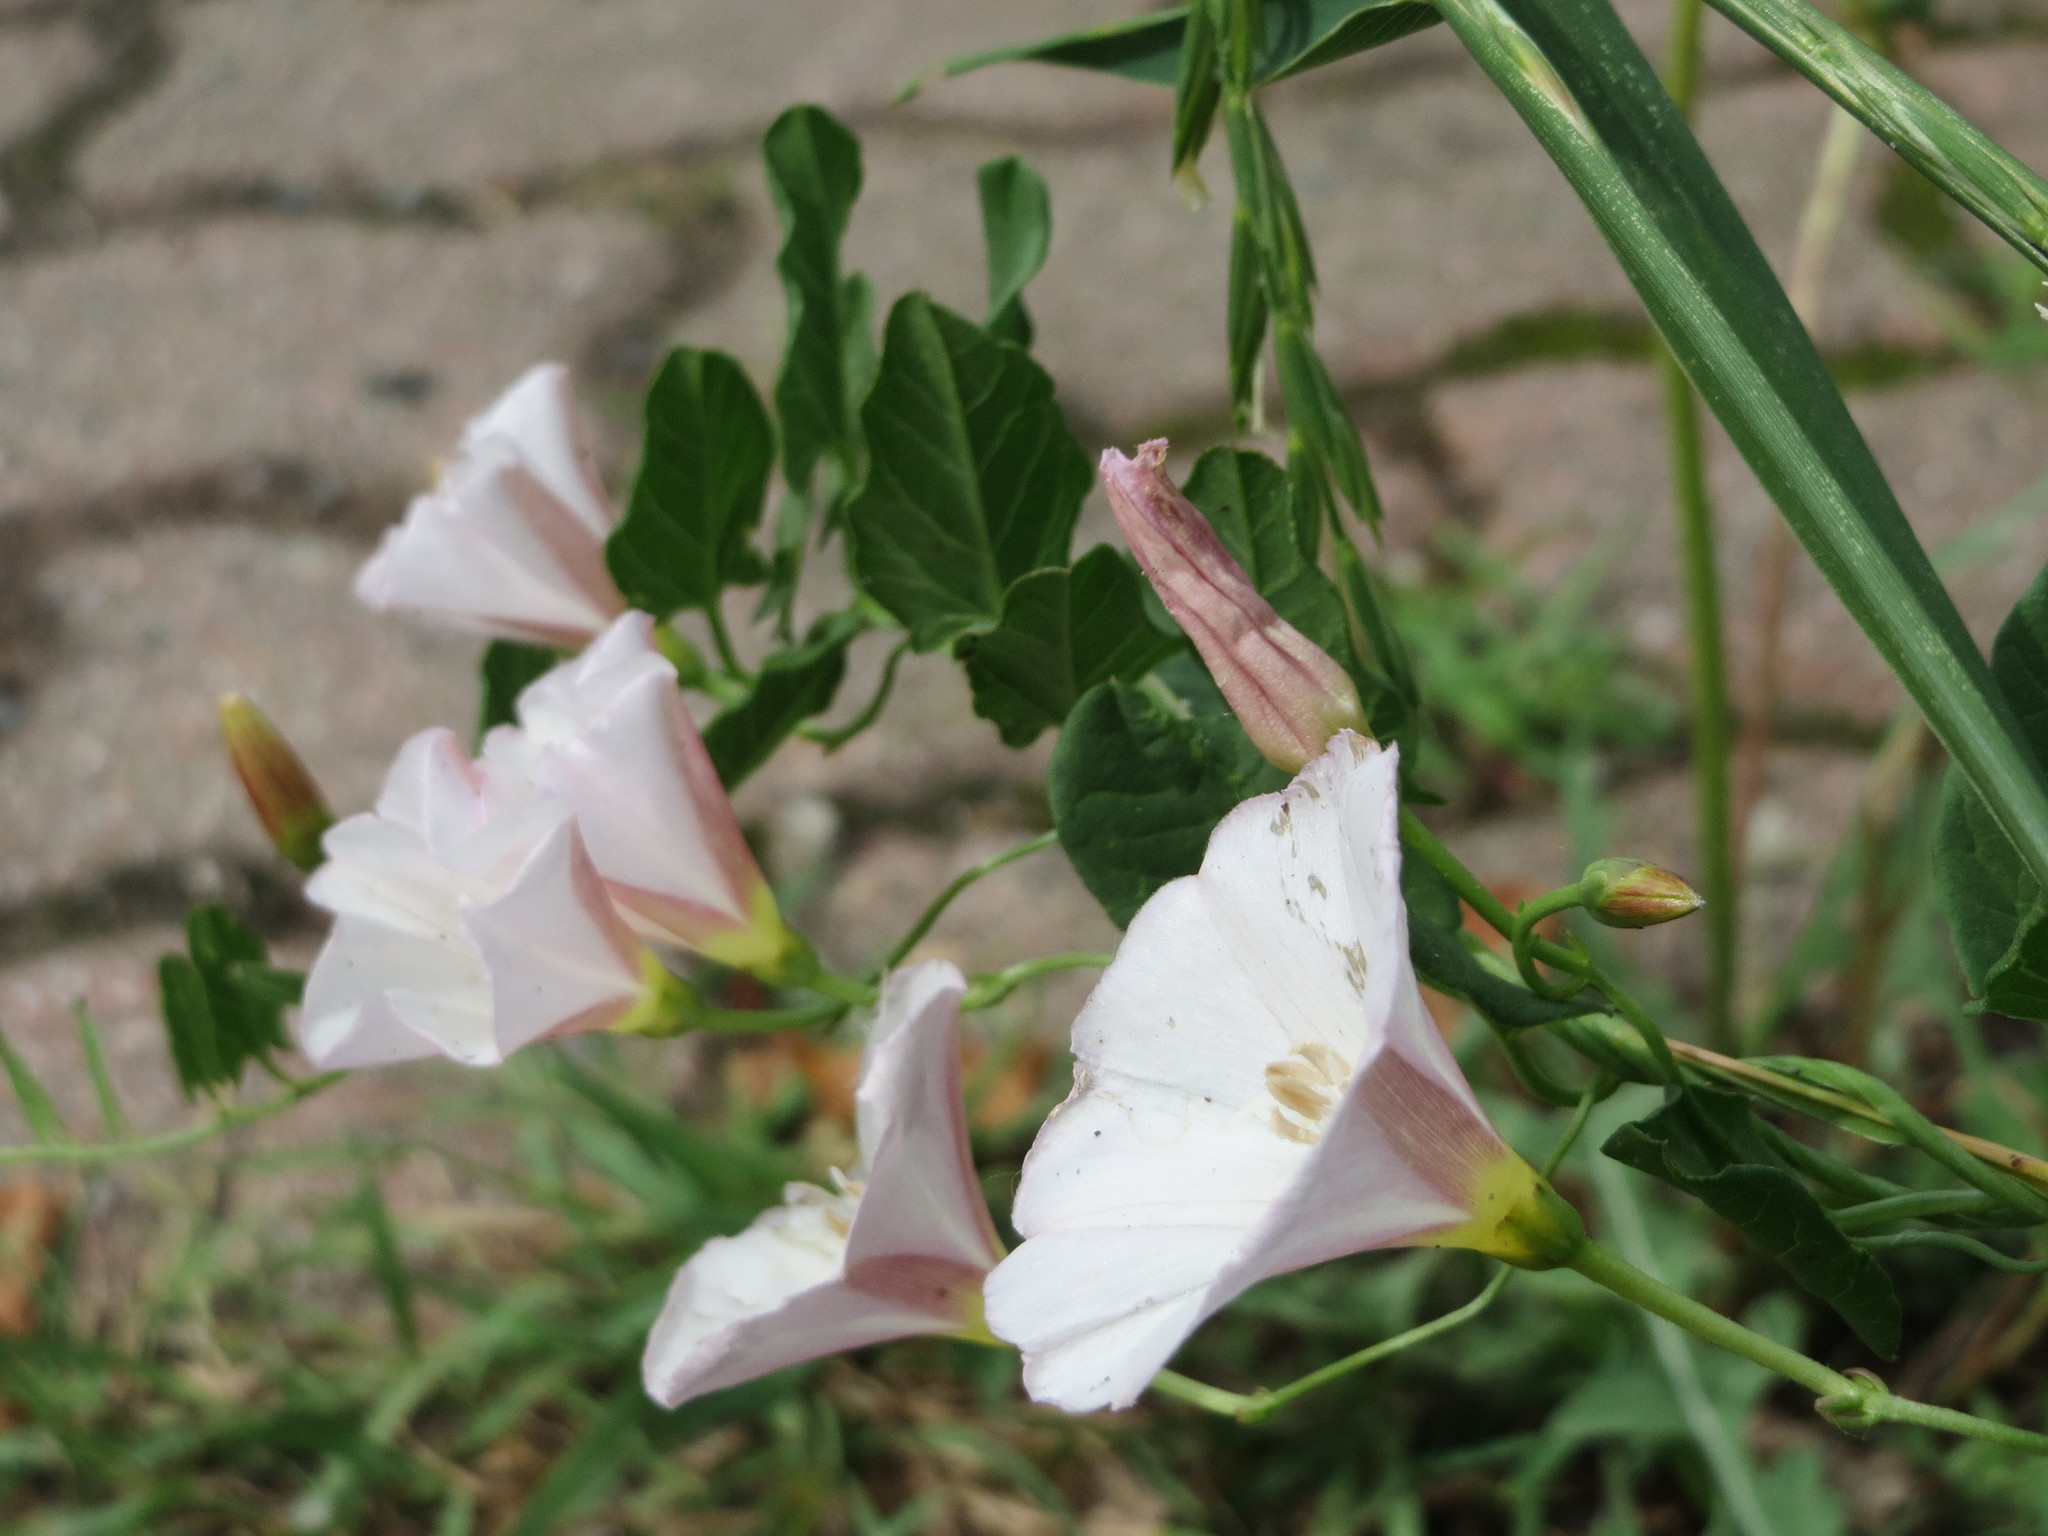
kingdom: Plantae
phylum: Tracheophyta
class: Magnoliopsida
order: Solanales
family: Convolvulaceae
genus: Convolvulus
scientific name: Convolvulus arvensis
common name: Field bindweed
